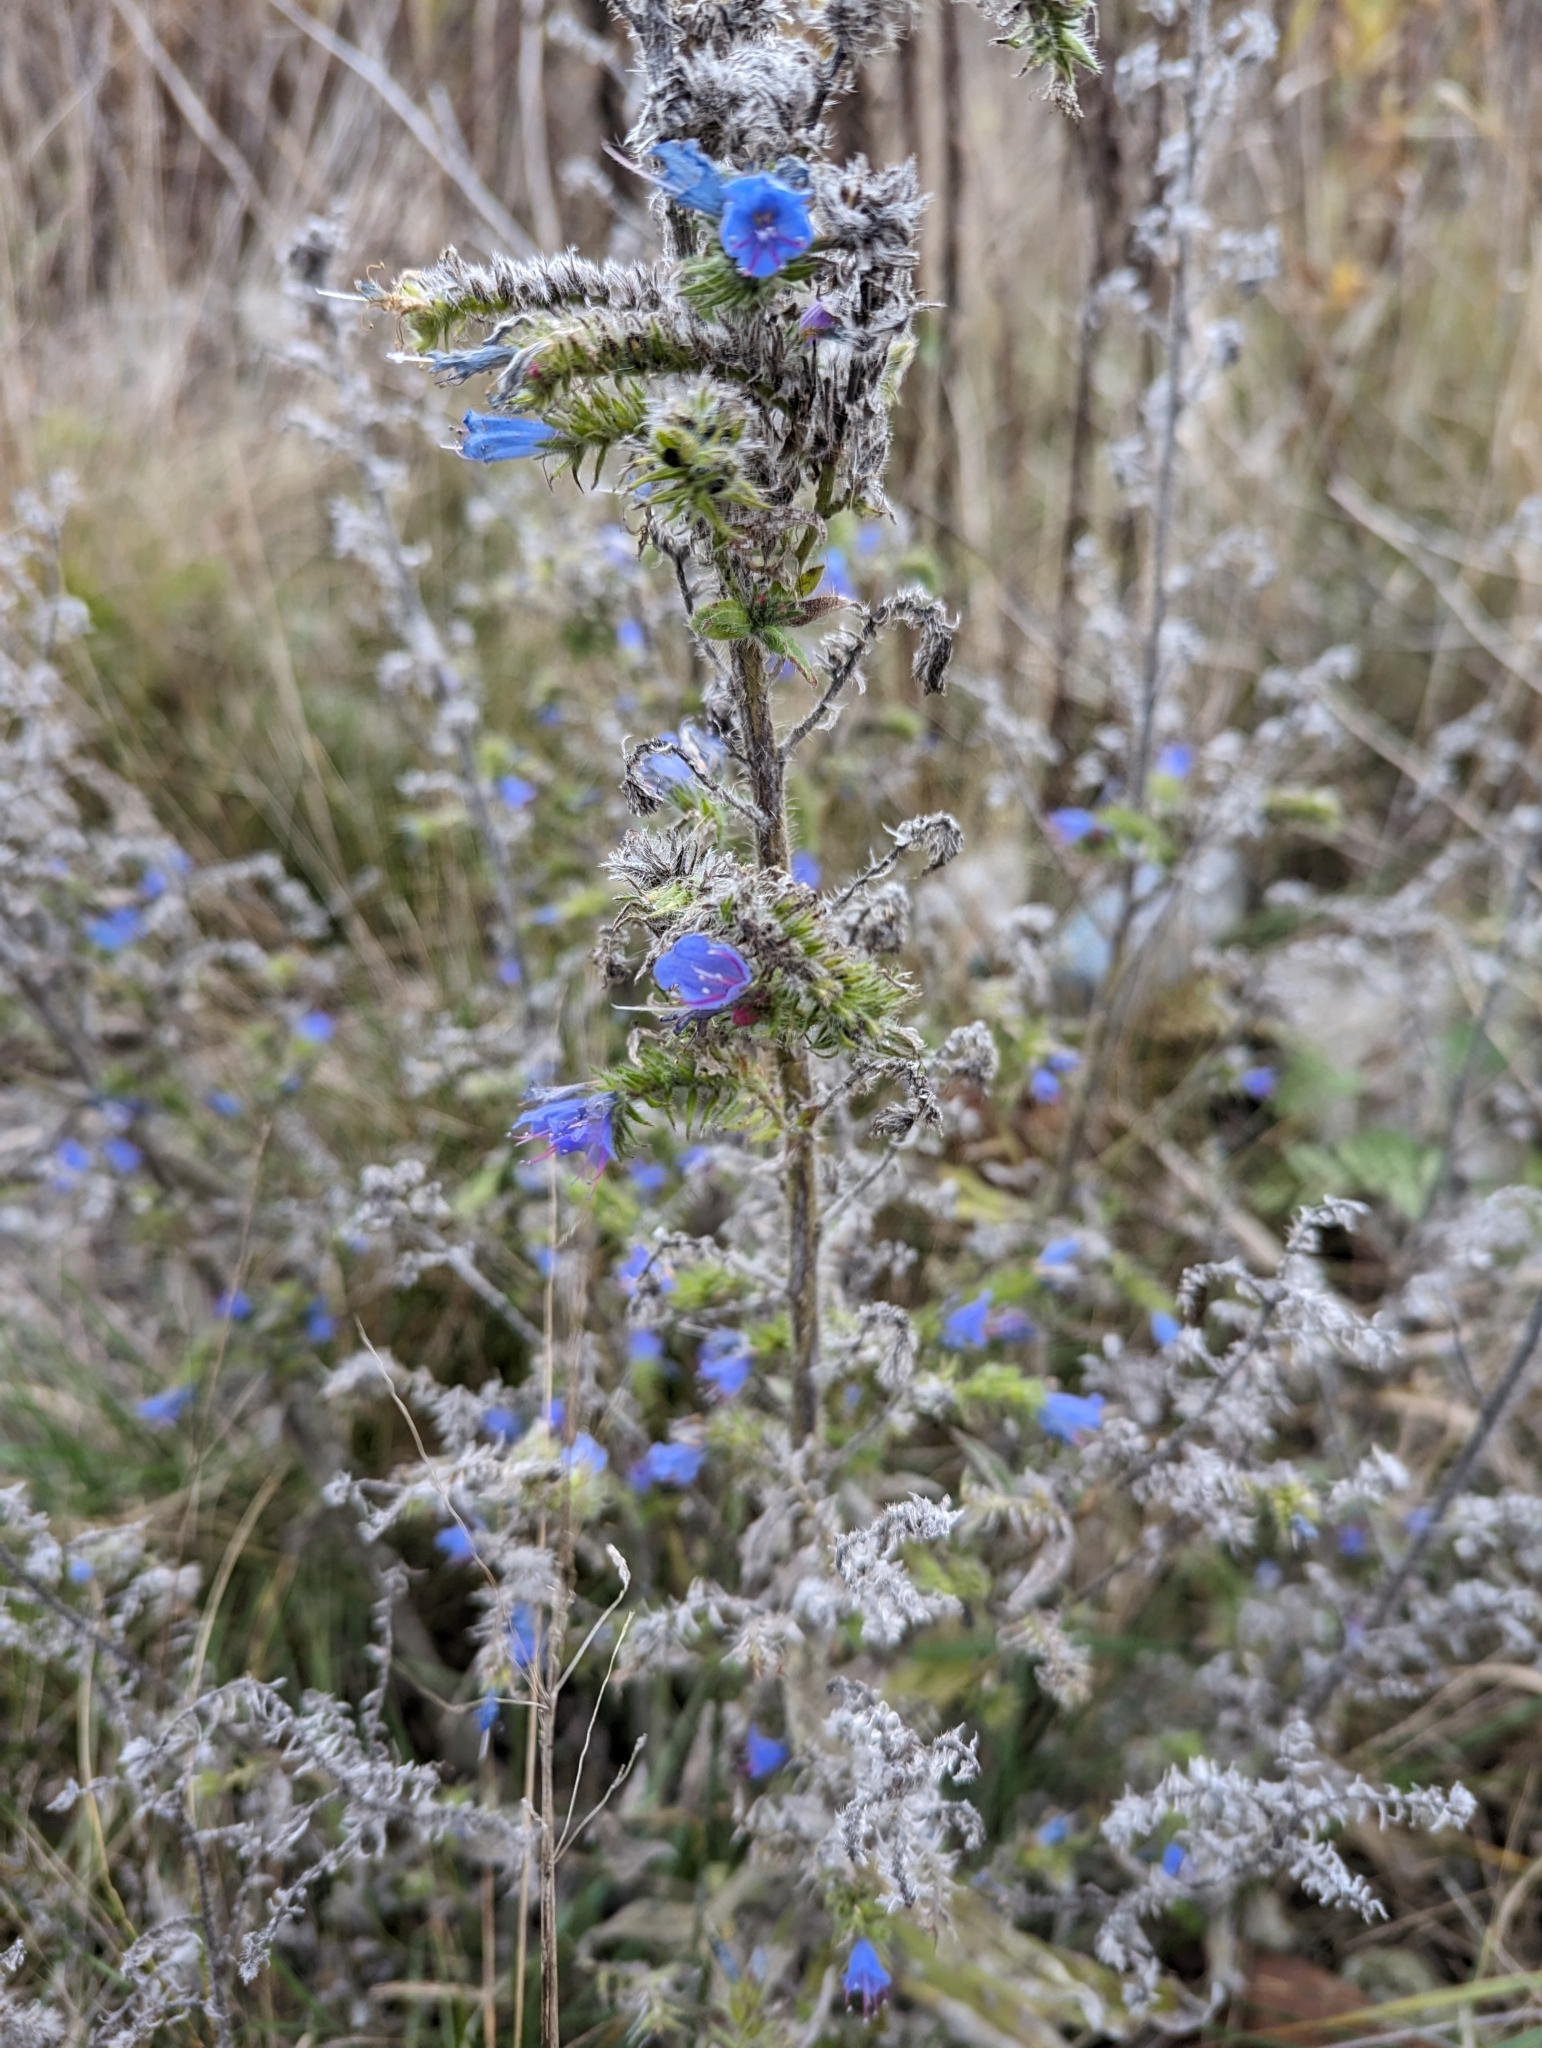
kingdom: Plantae
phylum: Tracheophyta
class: Magnoliopsida
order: Boraginales
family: Boraginaceae
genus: Echium
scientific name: Echium vulgare
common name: Common viper's bugloss
